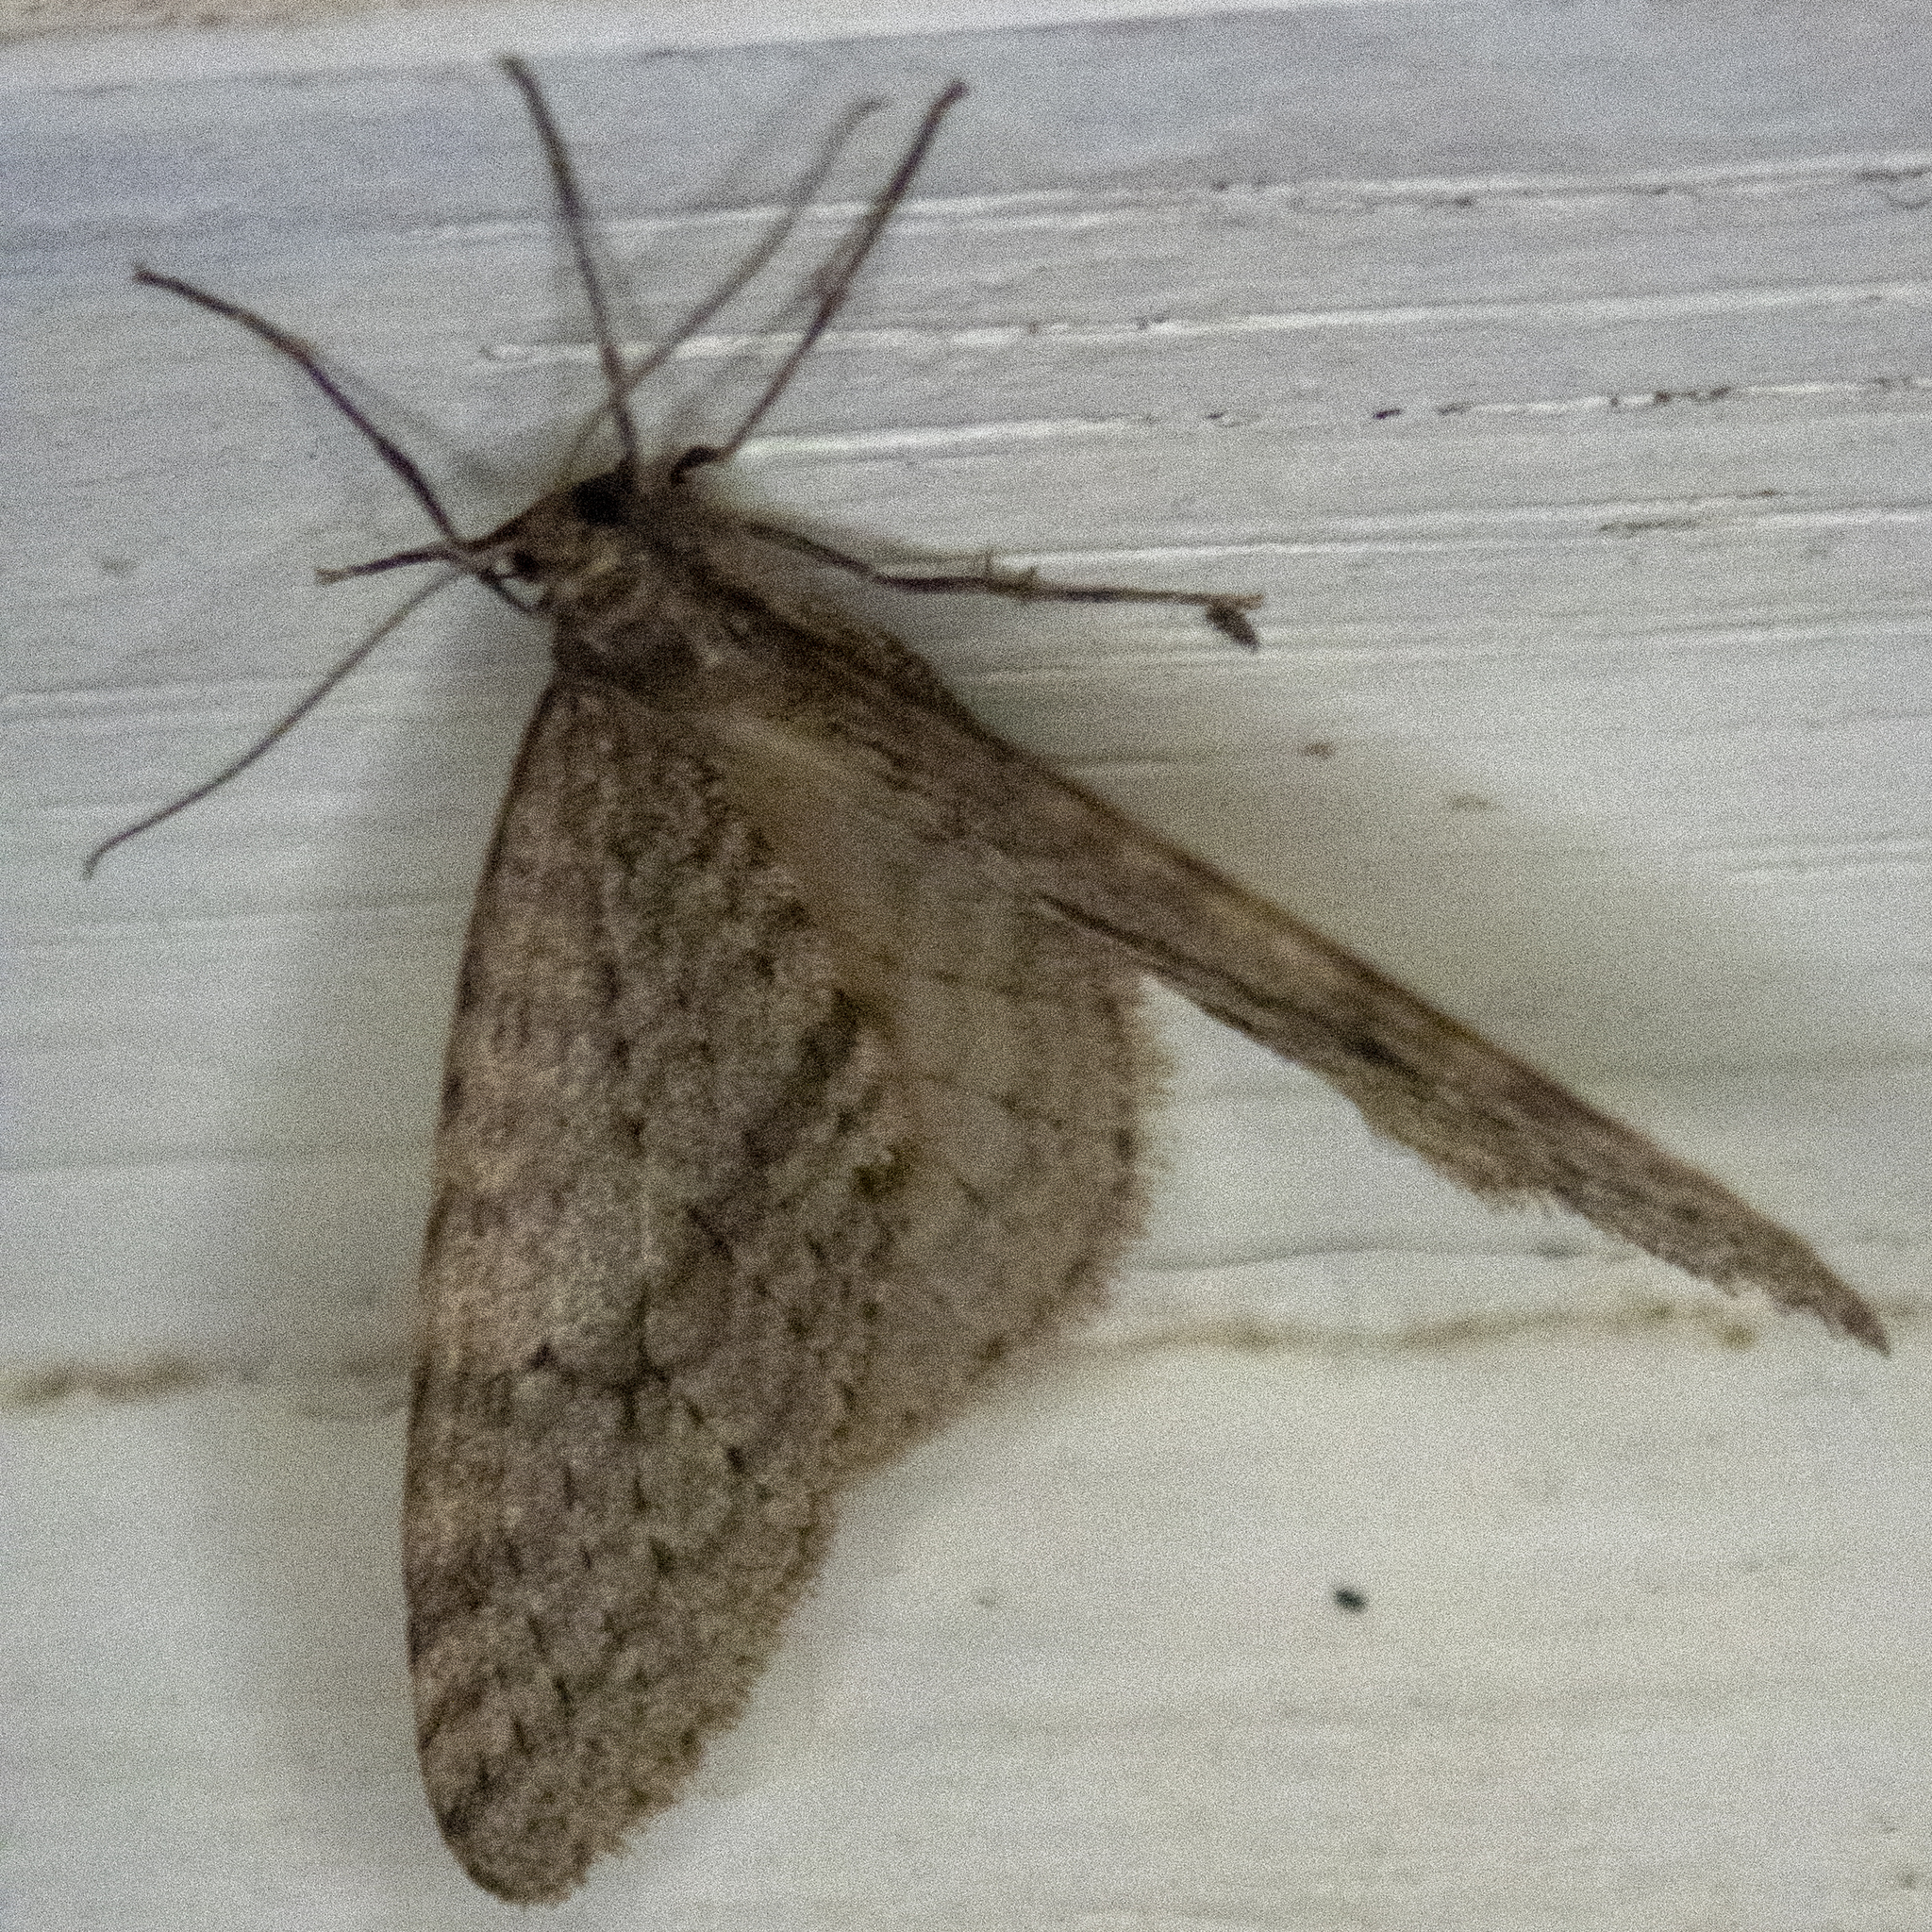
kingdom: Animalia
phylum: Arthropoda
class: Insecta
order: Lepidoptera
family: Geometridae
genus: Operophtera
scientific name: Operophtera bruceata
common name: Bruce spanworm
